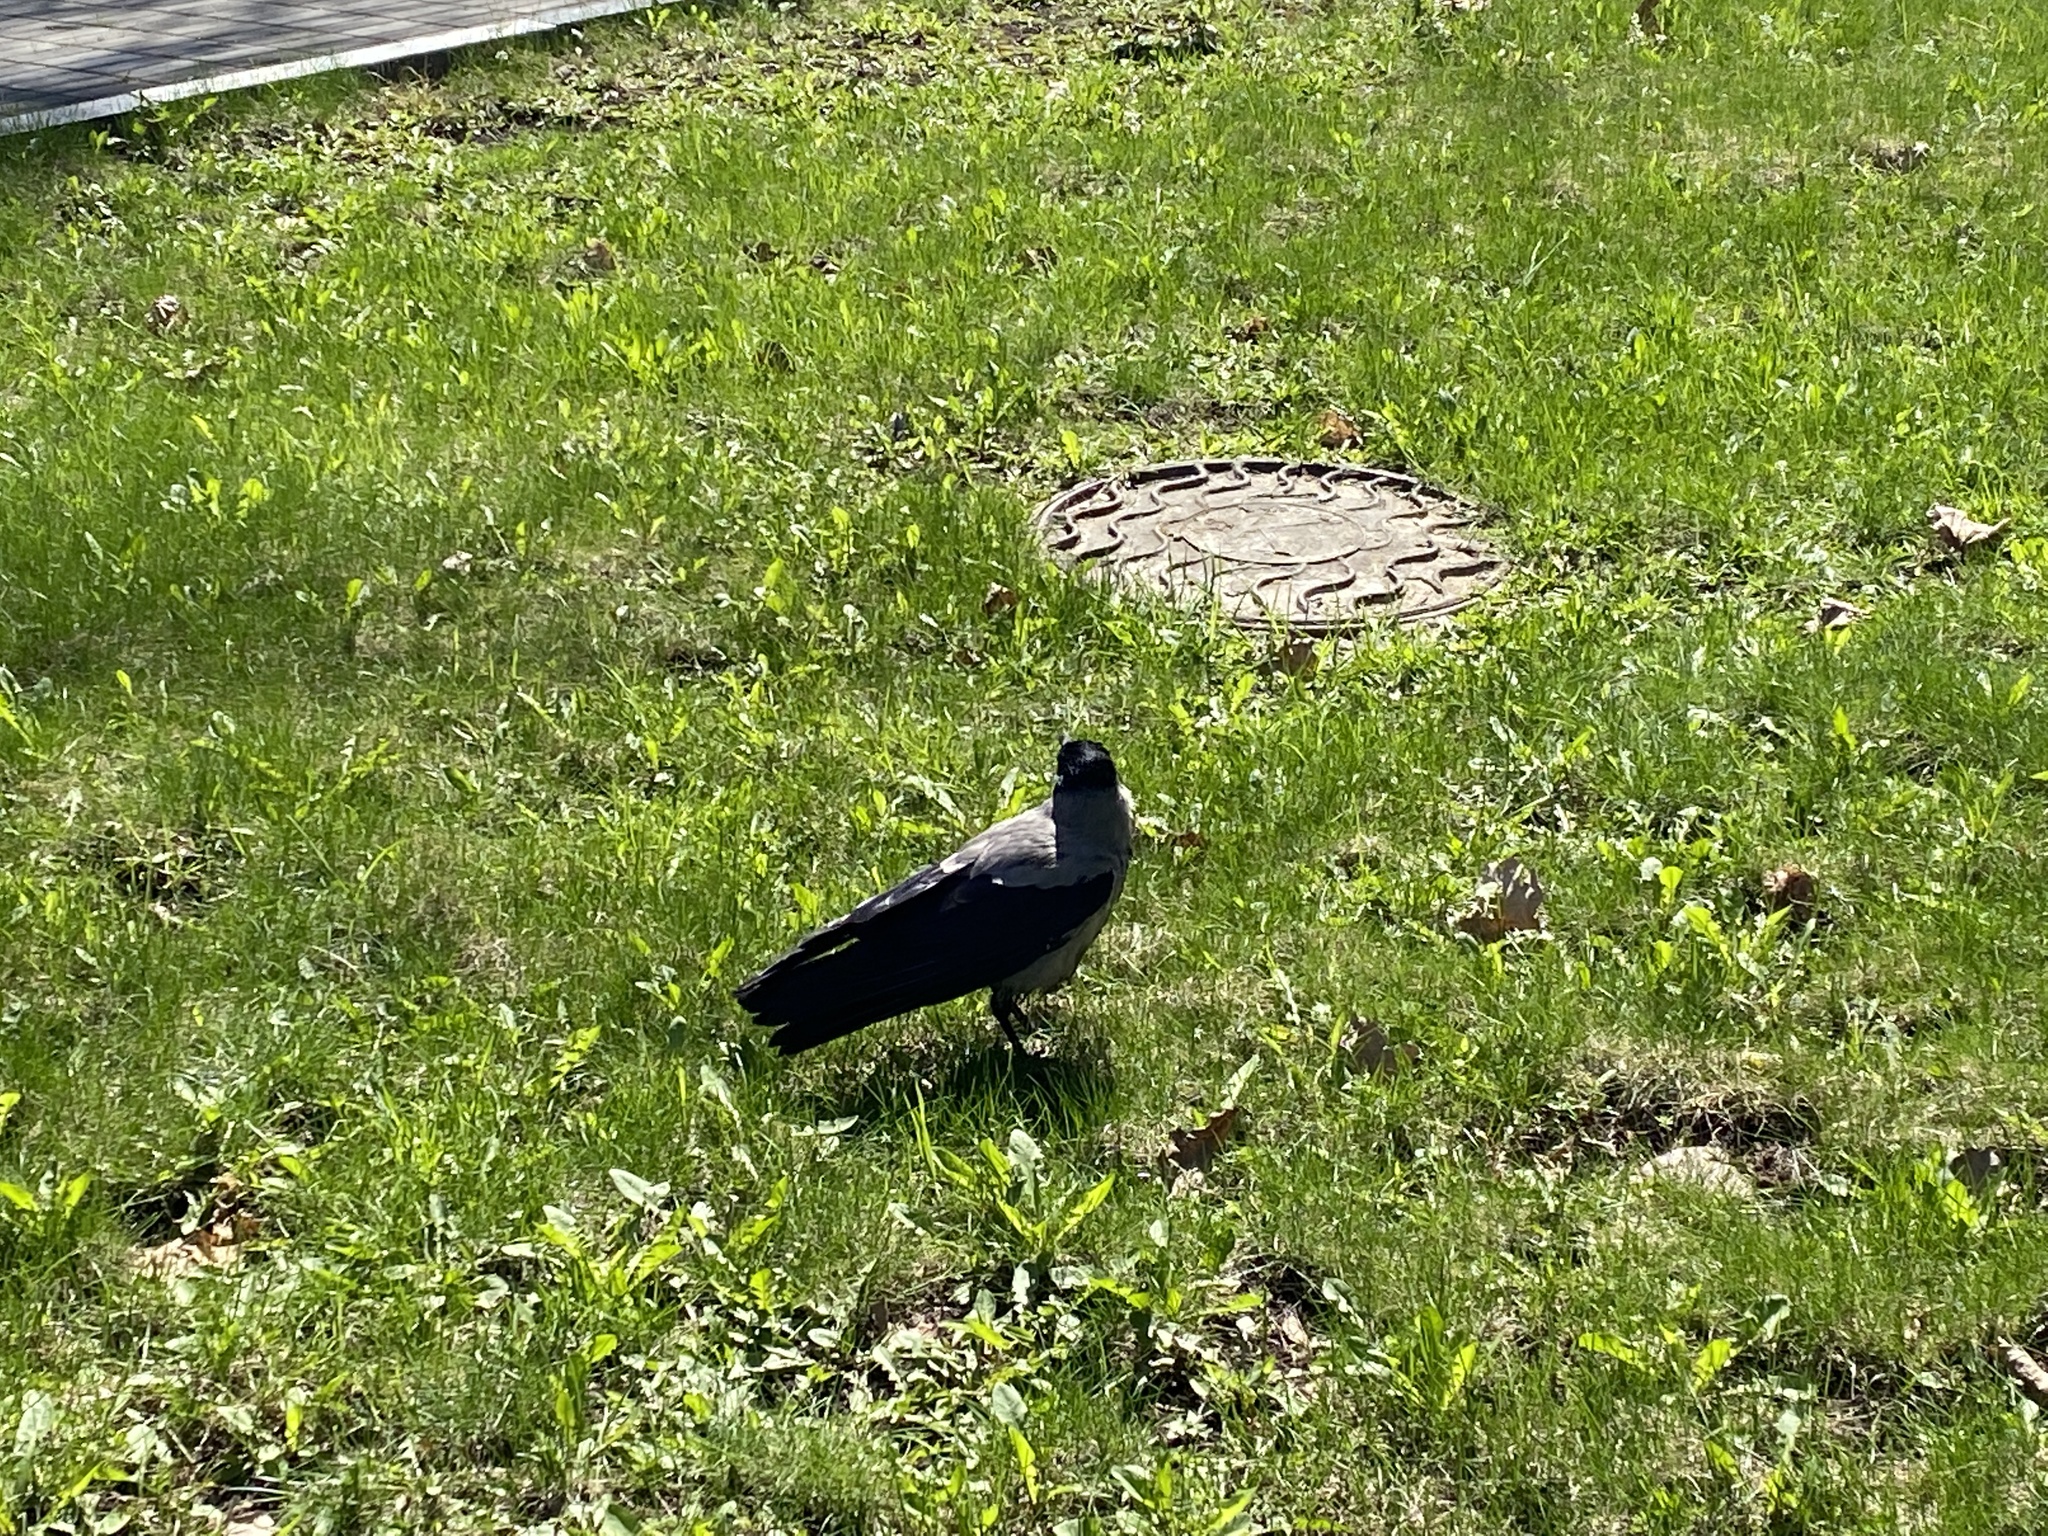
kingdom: Animalia
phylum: Chordata
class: Aves
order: Passeriformes
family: Corvidae
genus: Corvus
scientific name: Corvus cornix
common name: Hooded crow
